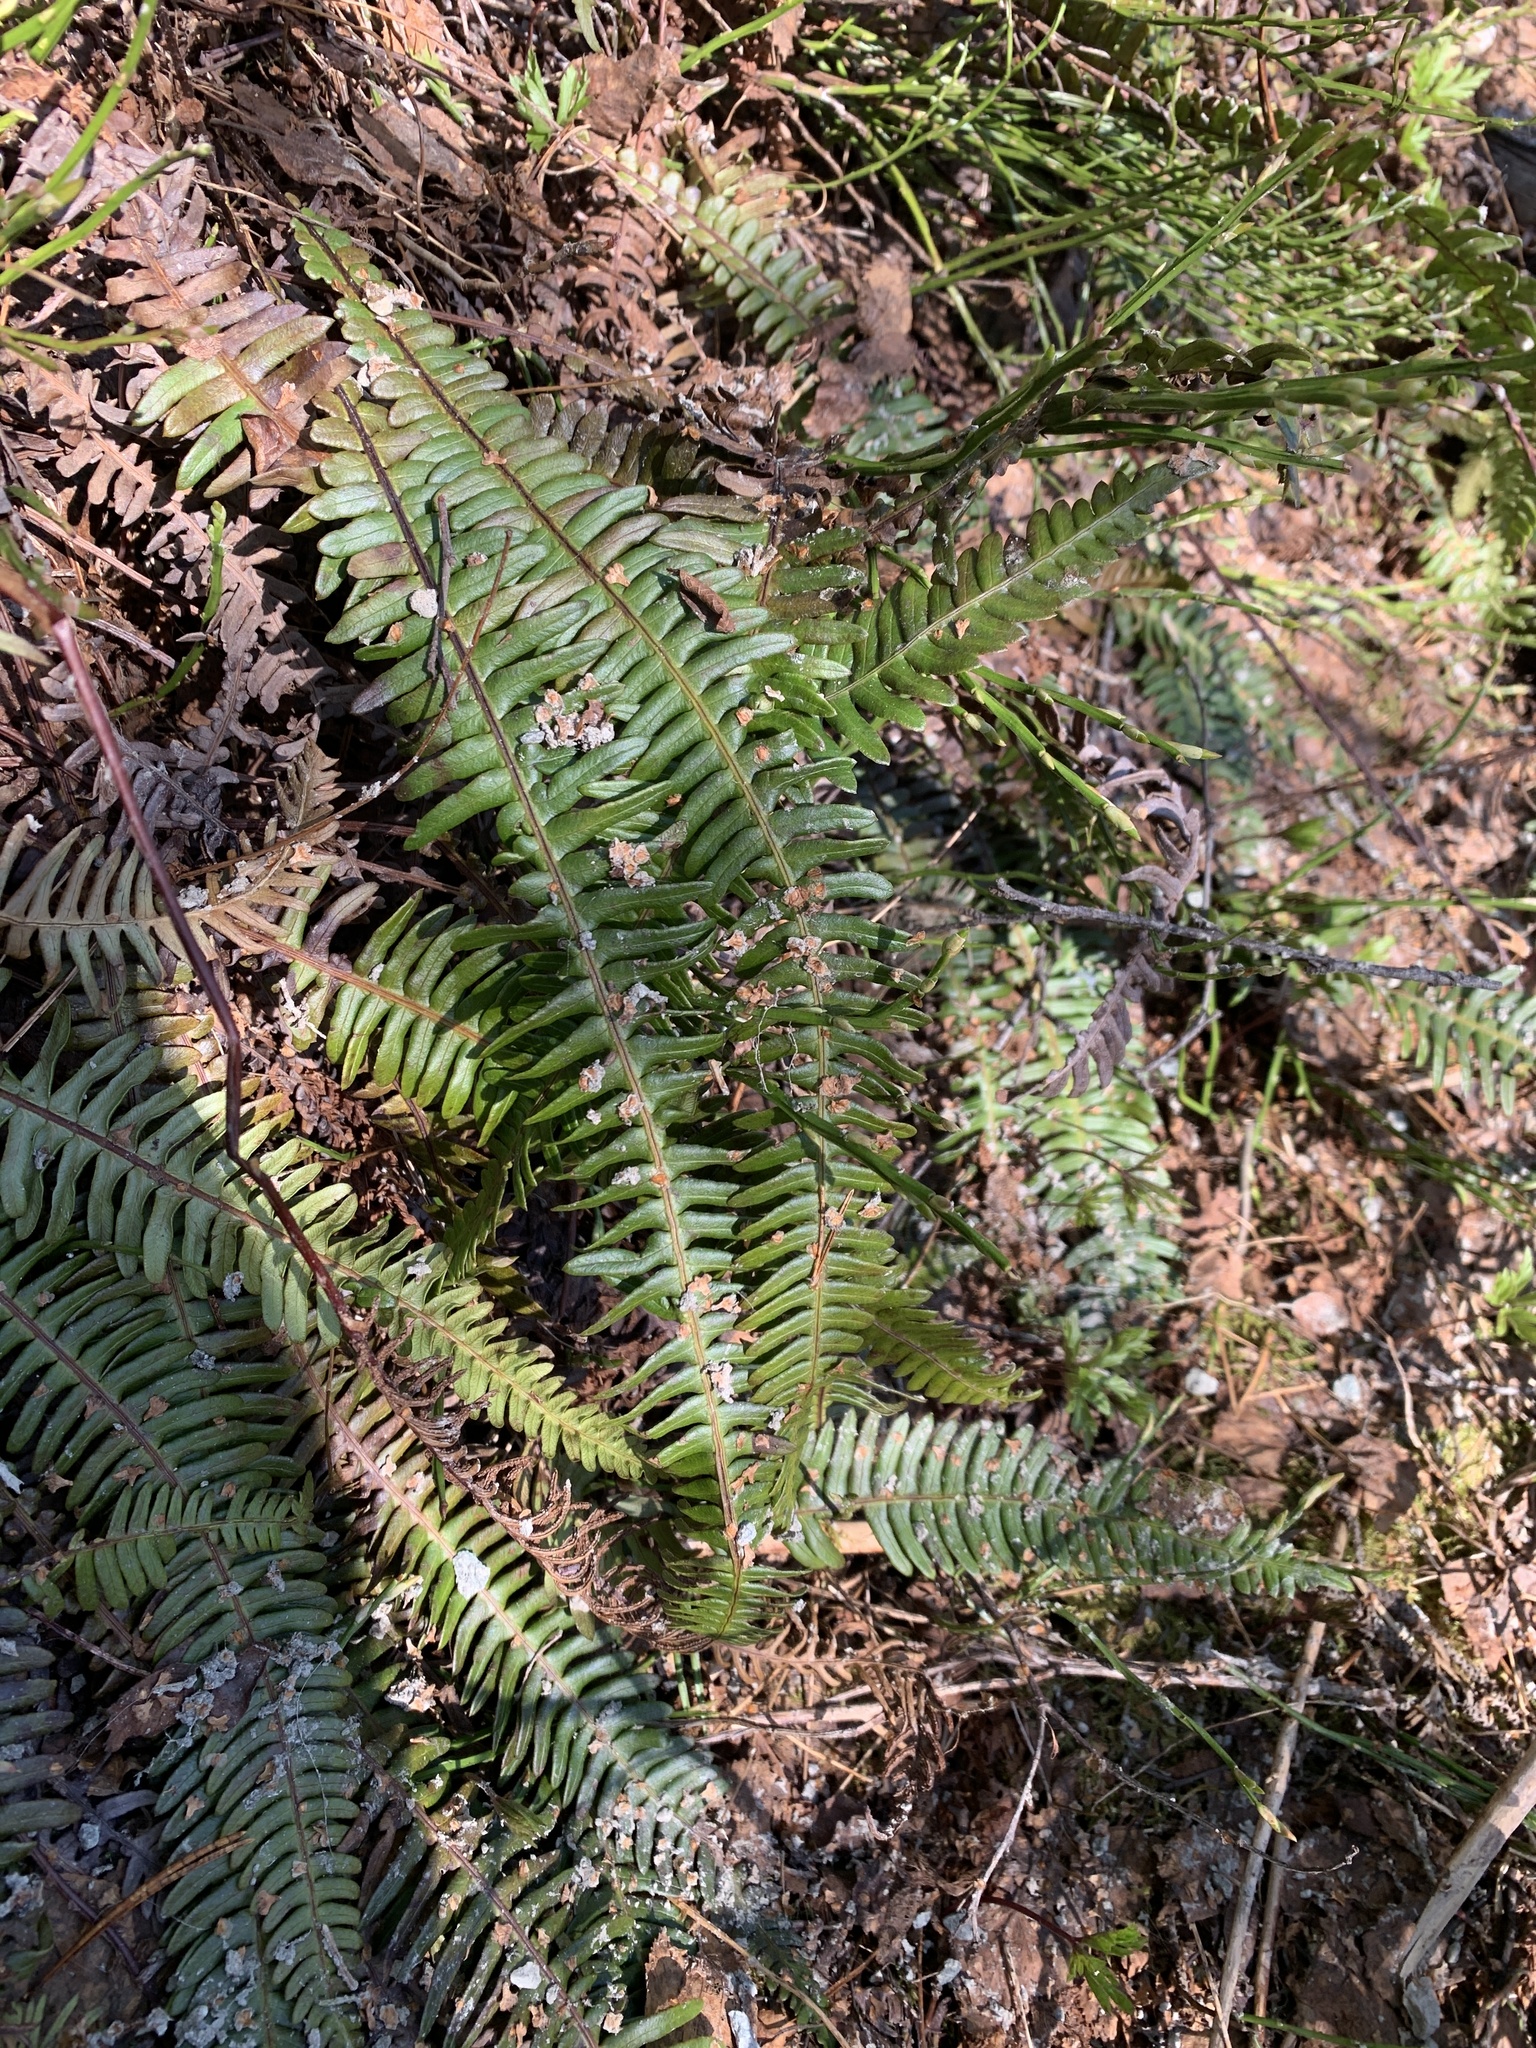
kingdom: Plantae
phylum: Tracheophyta
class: Polypodiopsida
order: Polypodiales
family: Blechnaceae
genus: Struthiopteris
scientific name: Struthiopteris spicant
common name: Deer fern
